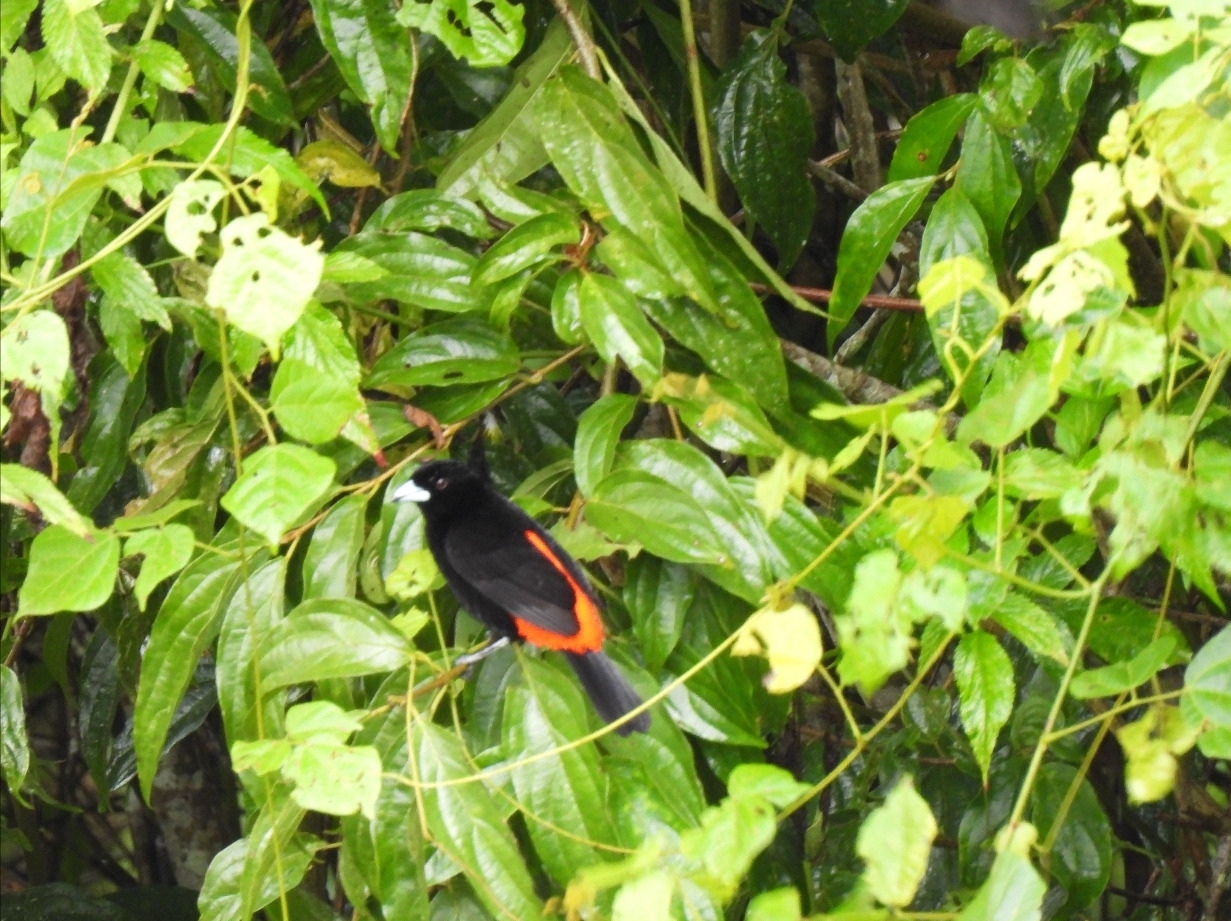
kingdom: Animalia
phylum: Chordata
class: Aves
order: Passeriformes
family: Thraupidae
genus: Ramphocelus
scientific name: Ramphocelus passerinii
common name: Passerini's tanager
